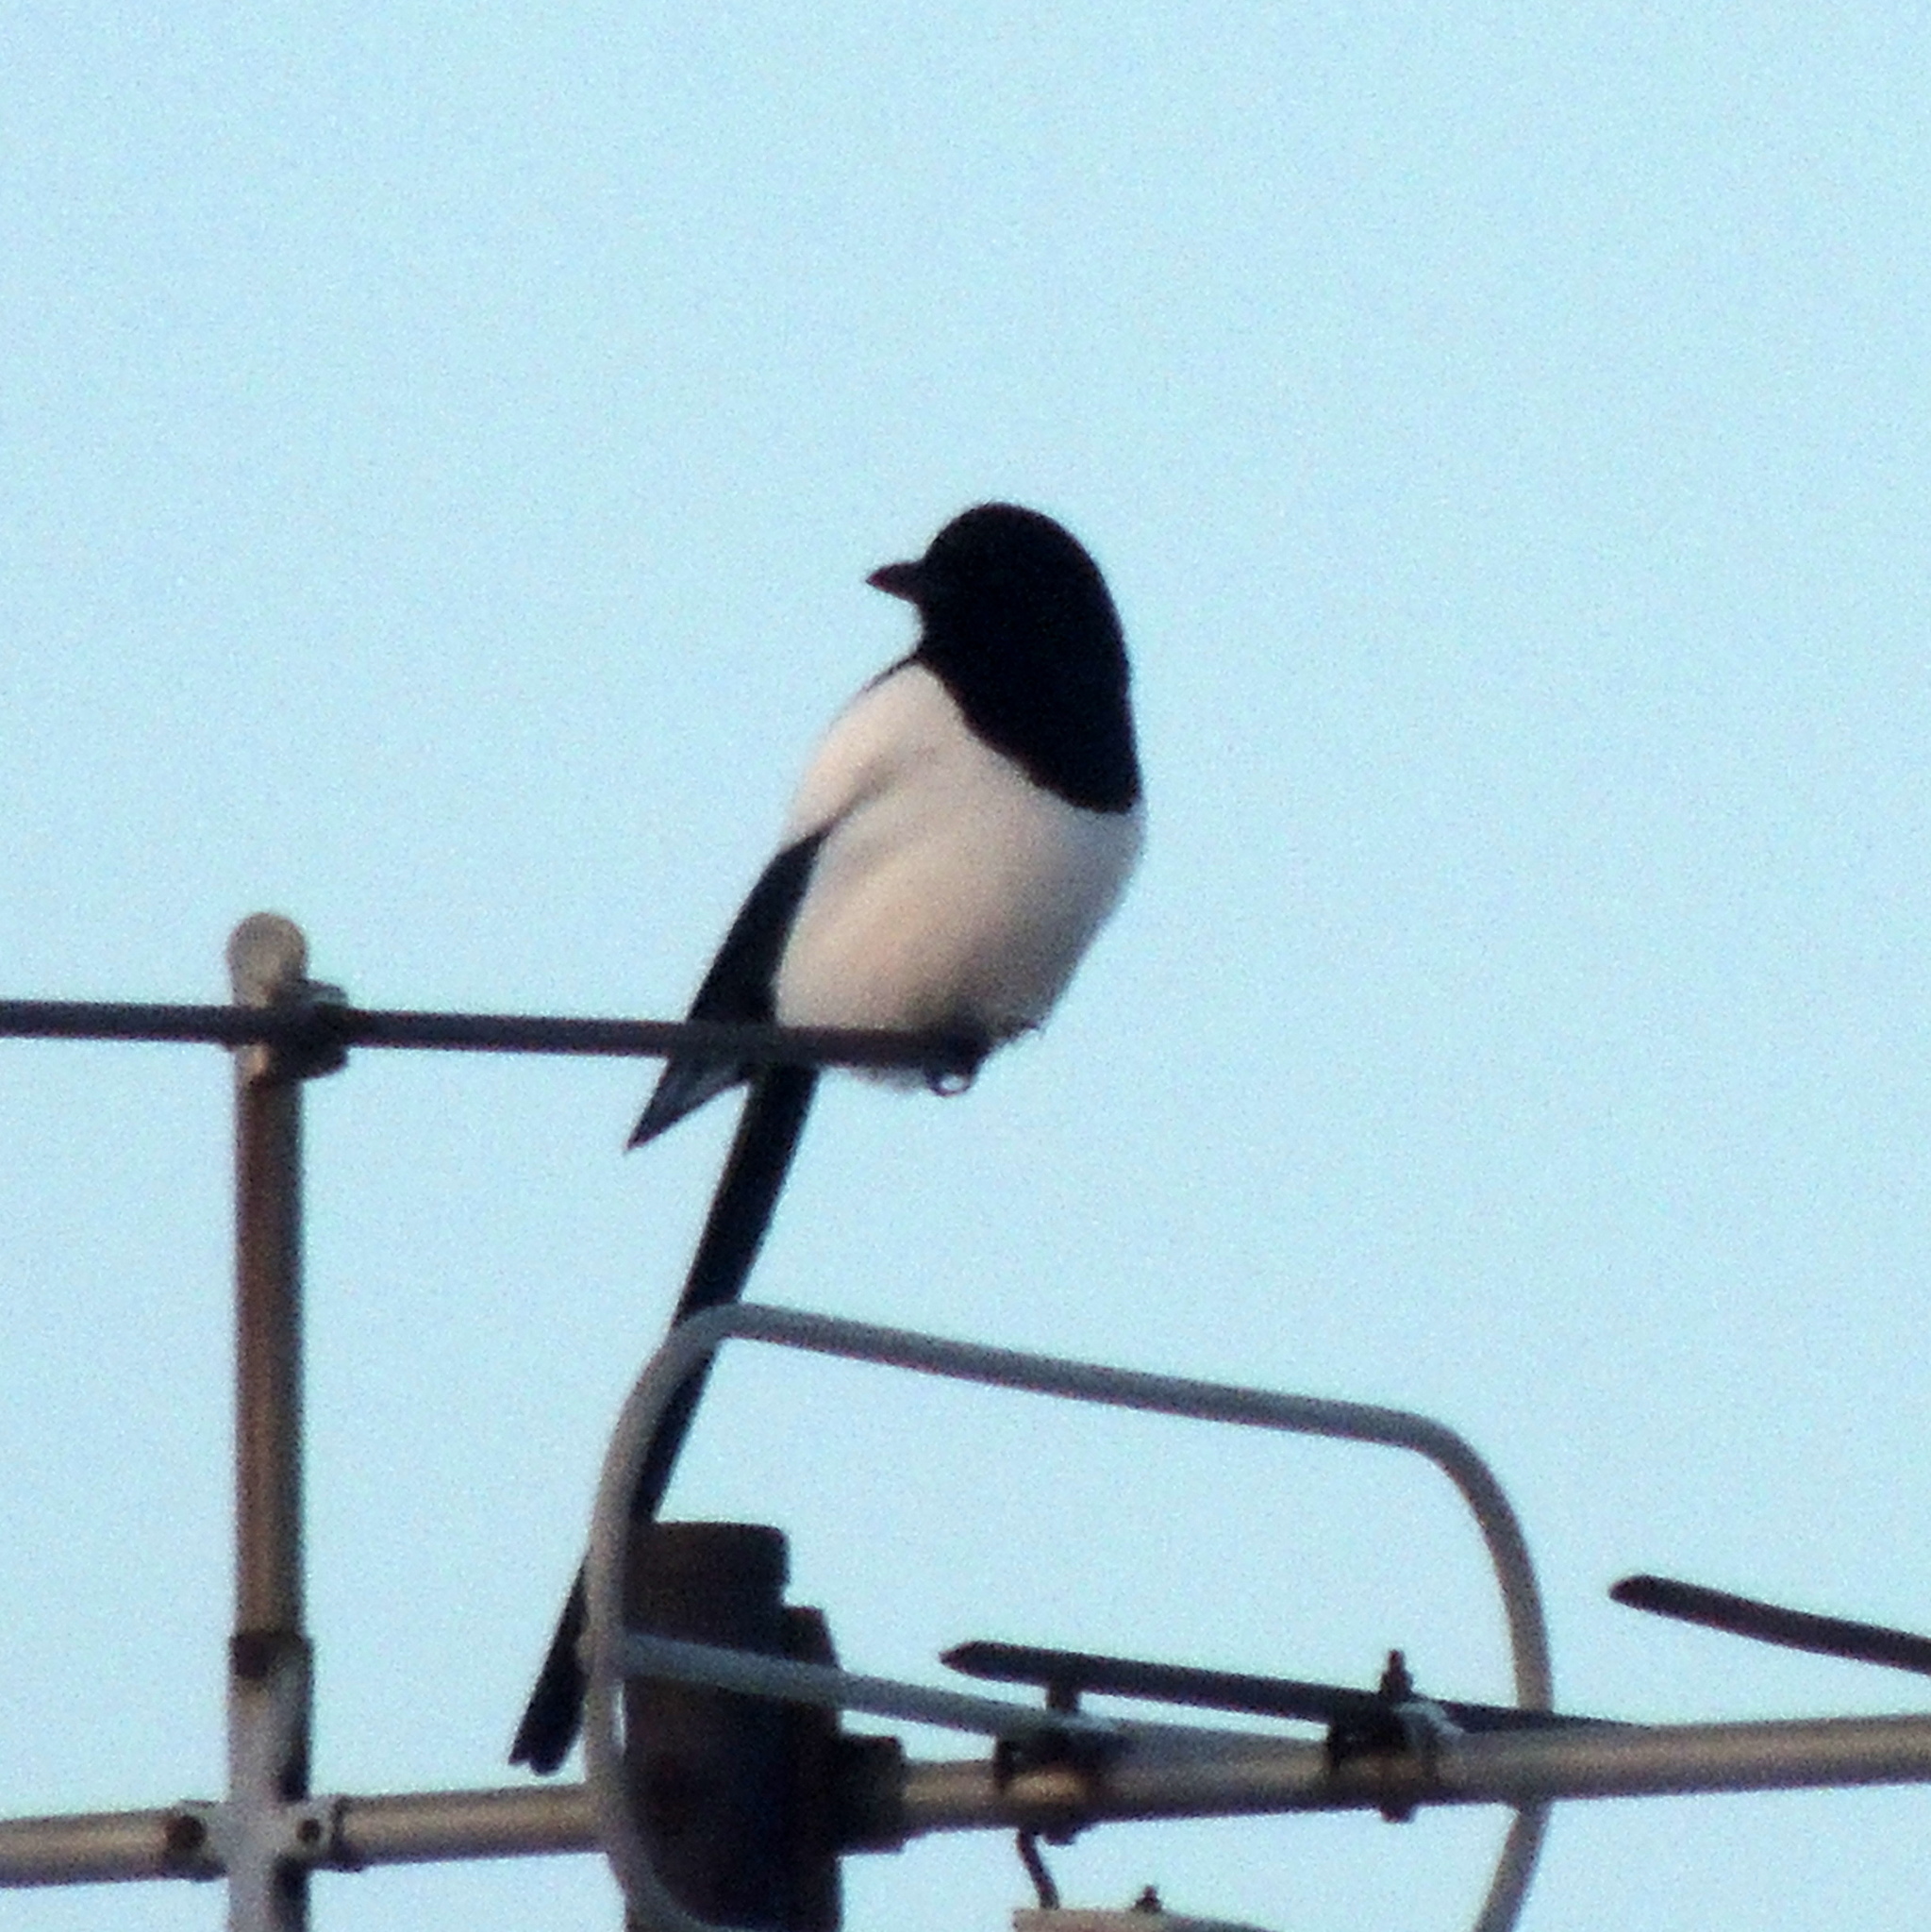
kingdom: Animalia
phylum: Chordata
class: Aves
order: Passeriformes
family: Corvidae
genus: Pica
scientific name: Pica pica
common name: Eurasian magpie
